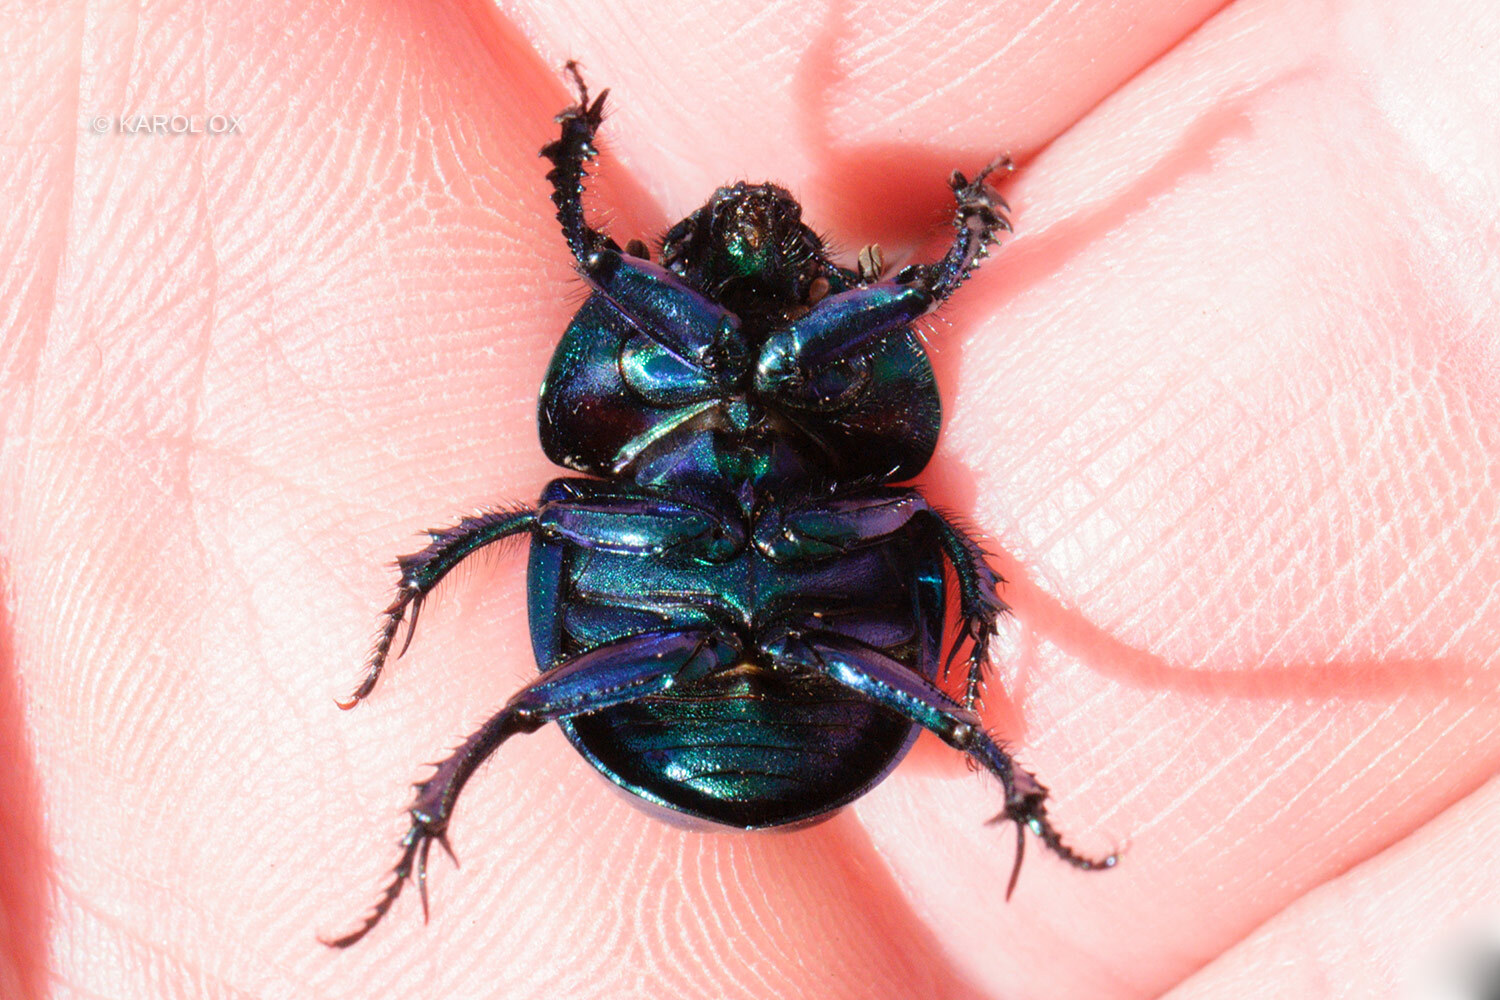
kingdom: Animalia
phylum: Arthropoda
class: Insecta
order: Coleoptera
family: Geotrupidae
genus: Trypocopris
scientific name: Trypocopris vernalis
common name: Spring dumbledor
